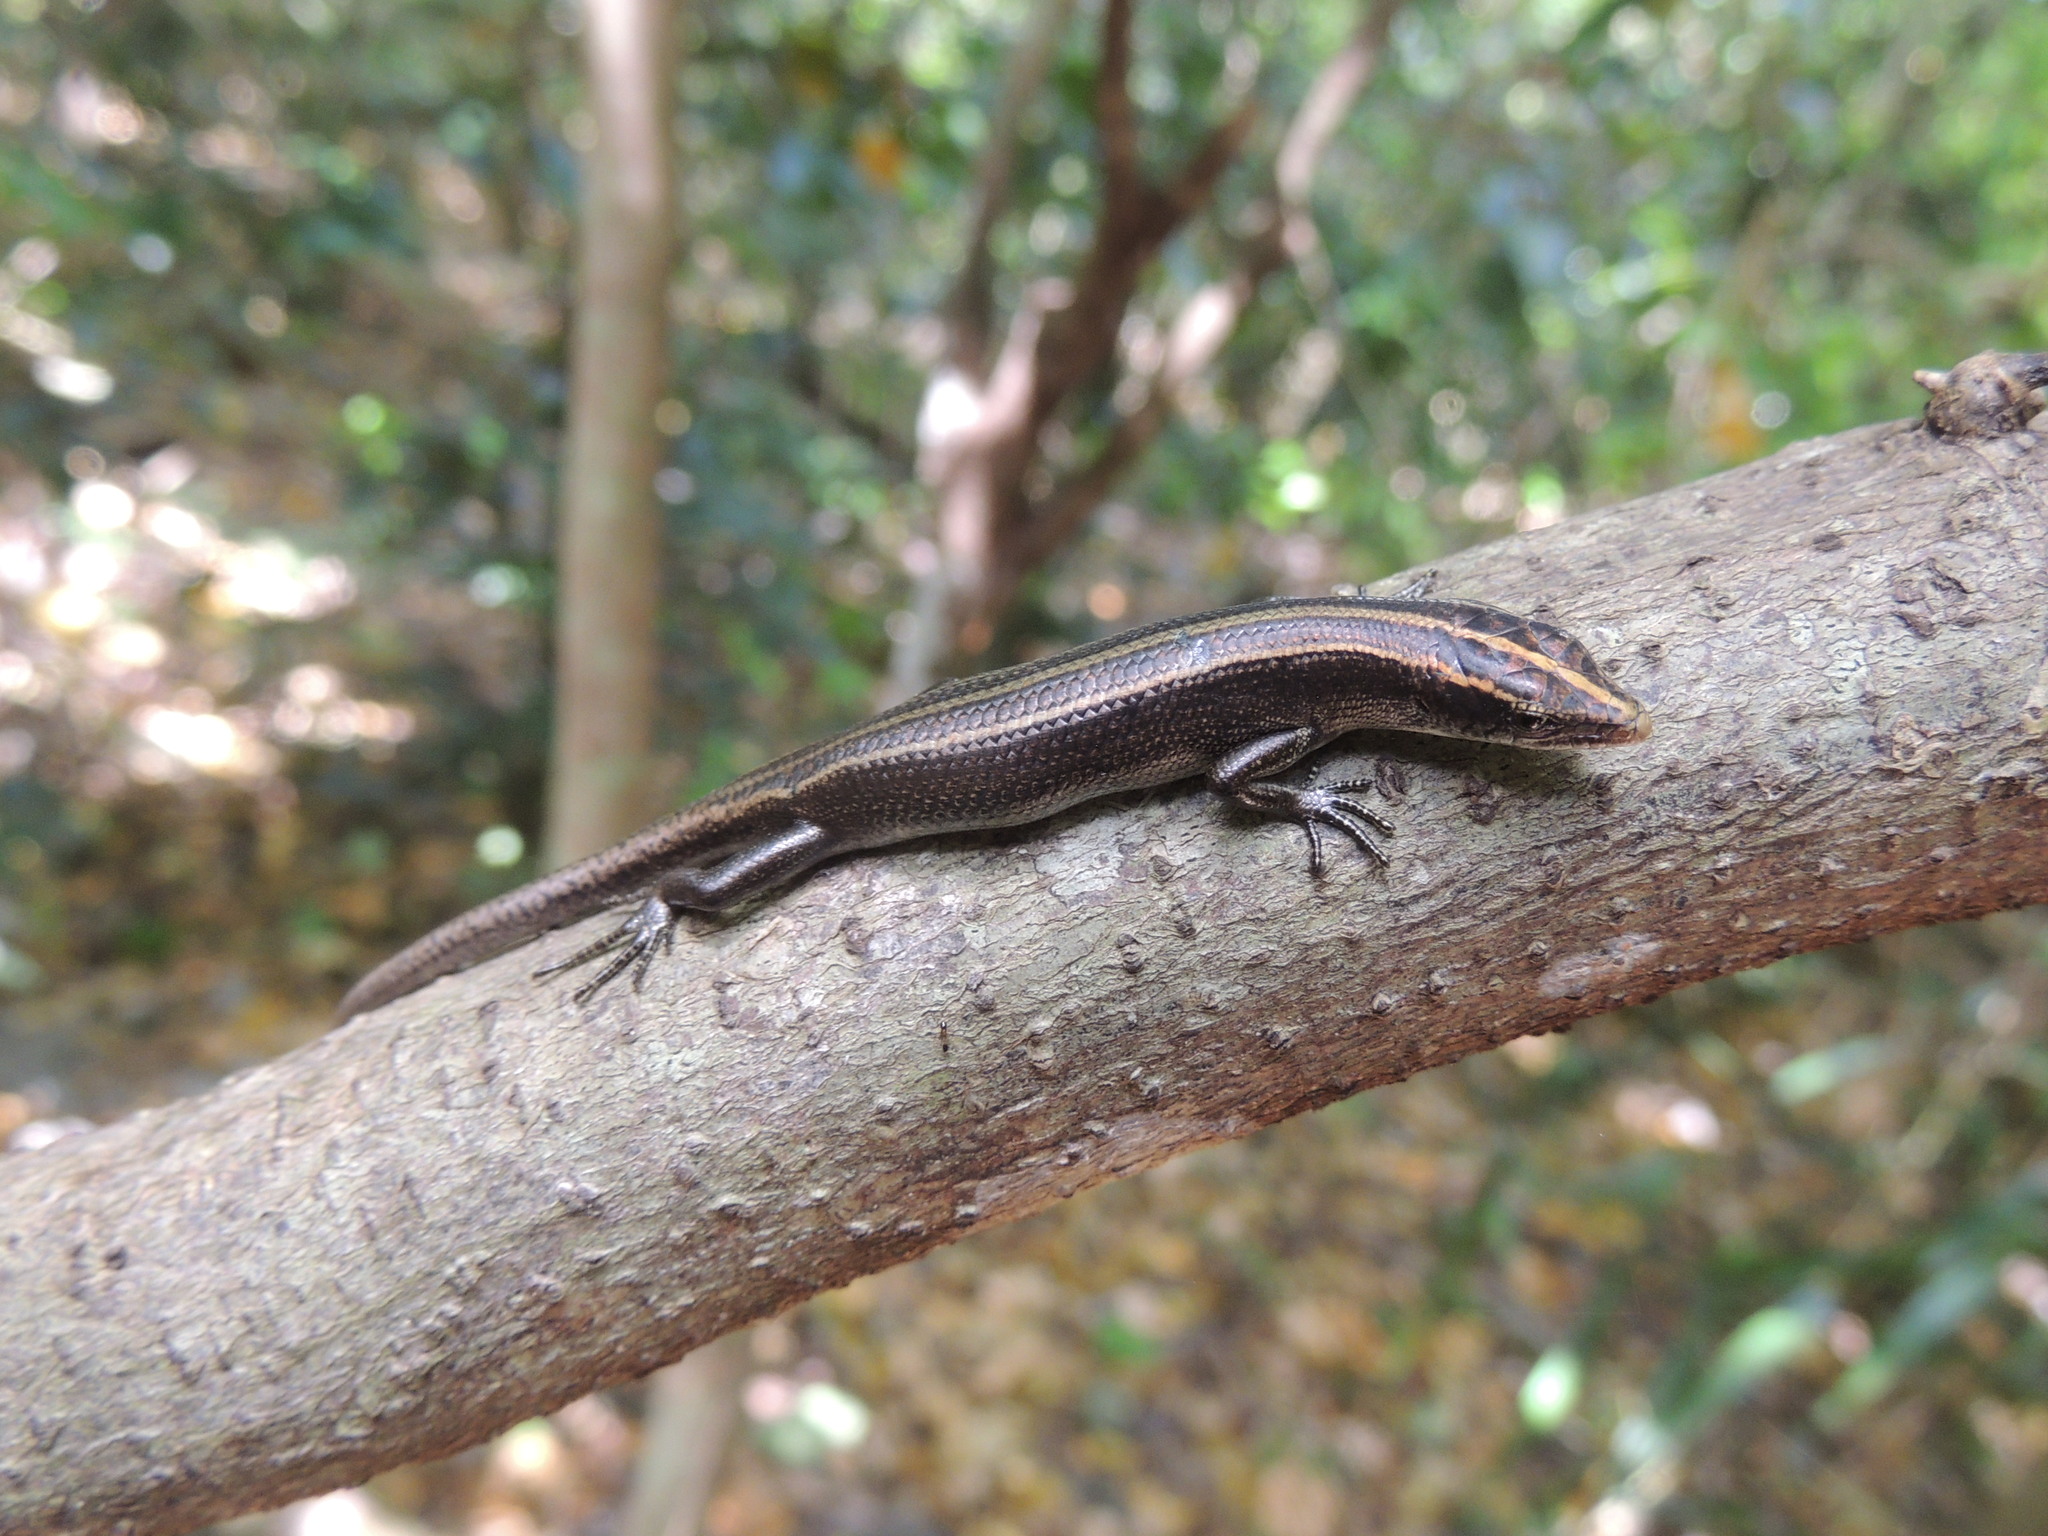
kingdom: Animalia
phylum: Chordata
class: Squamata
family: Scincidae
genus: Emoia
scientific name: Emoia caeruleocauda
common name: Pacific bluetail skink
